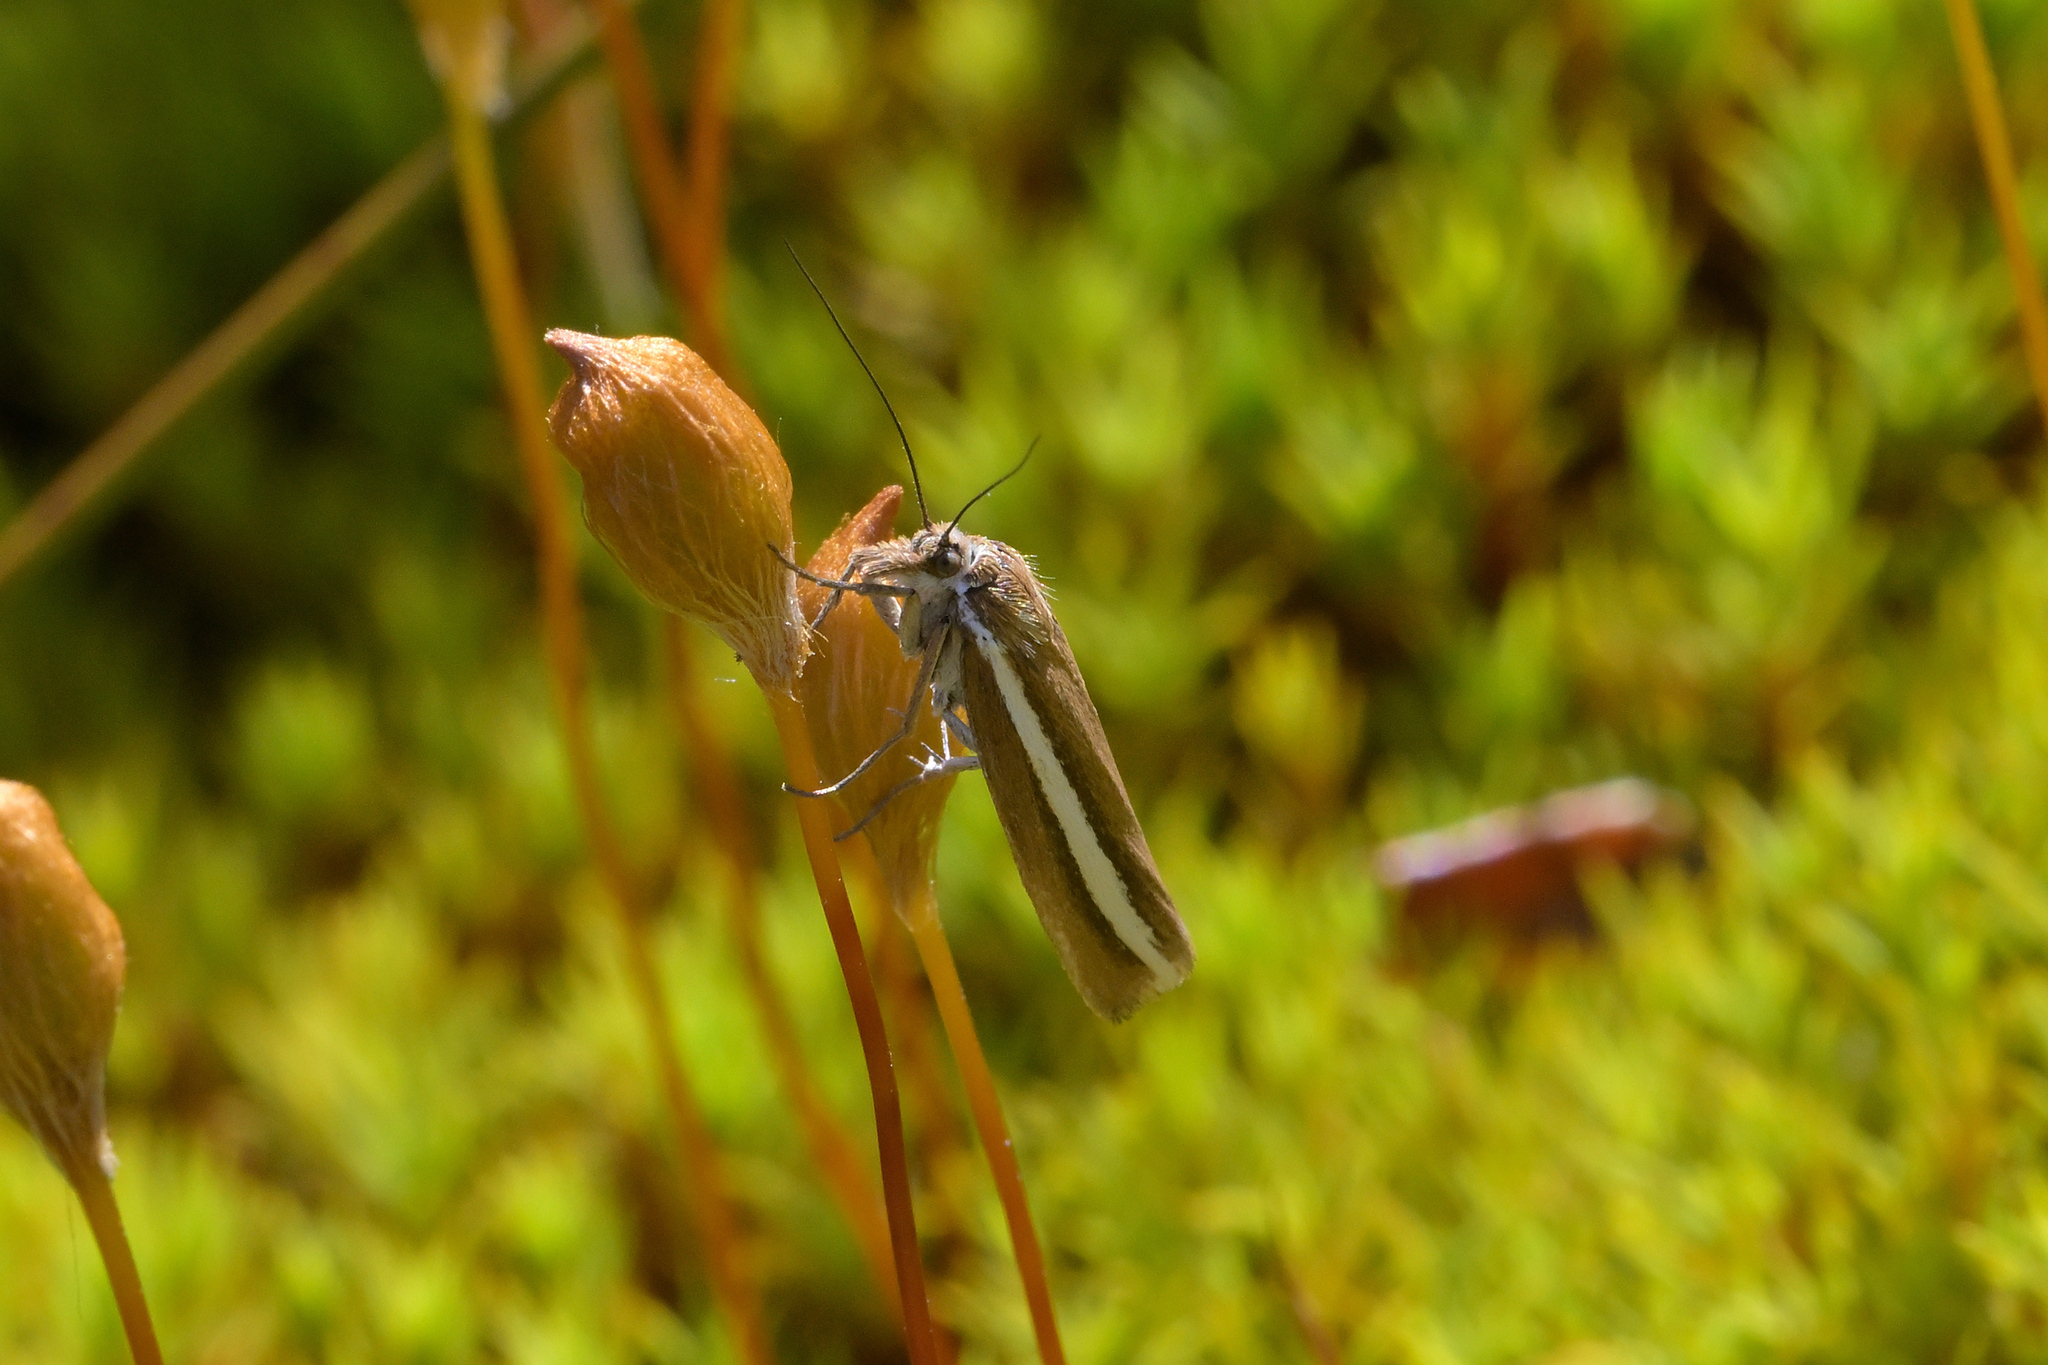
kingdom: Animalia
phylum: Arthropoda
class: Insecta
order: Lepidoptera
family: Crambidae
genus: Orocrambus
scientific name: Orocrambus aethonellus
